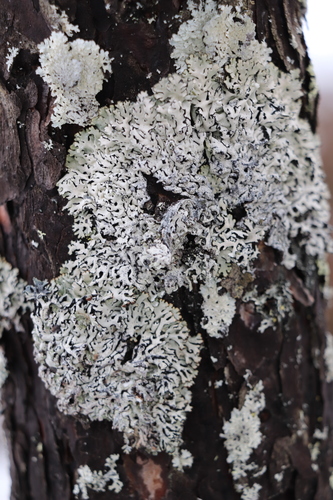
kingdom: Fungi
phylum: Ascomycota
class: Lecanoromycetes
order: Lecanorales
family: Parmeliaceae
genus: Hypogymnia
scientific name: Hypogymnia physodes
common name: Dark crottle
